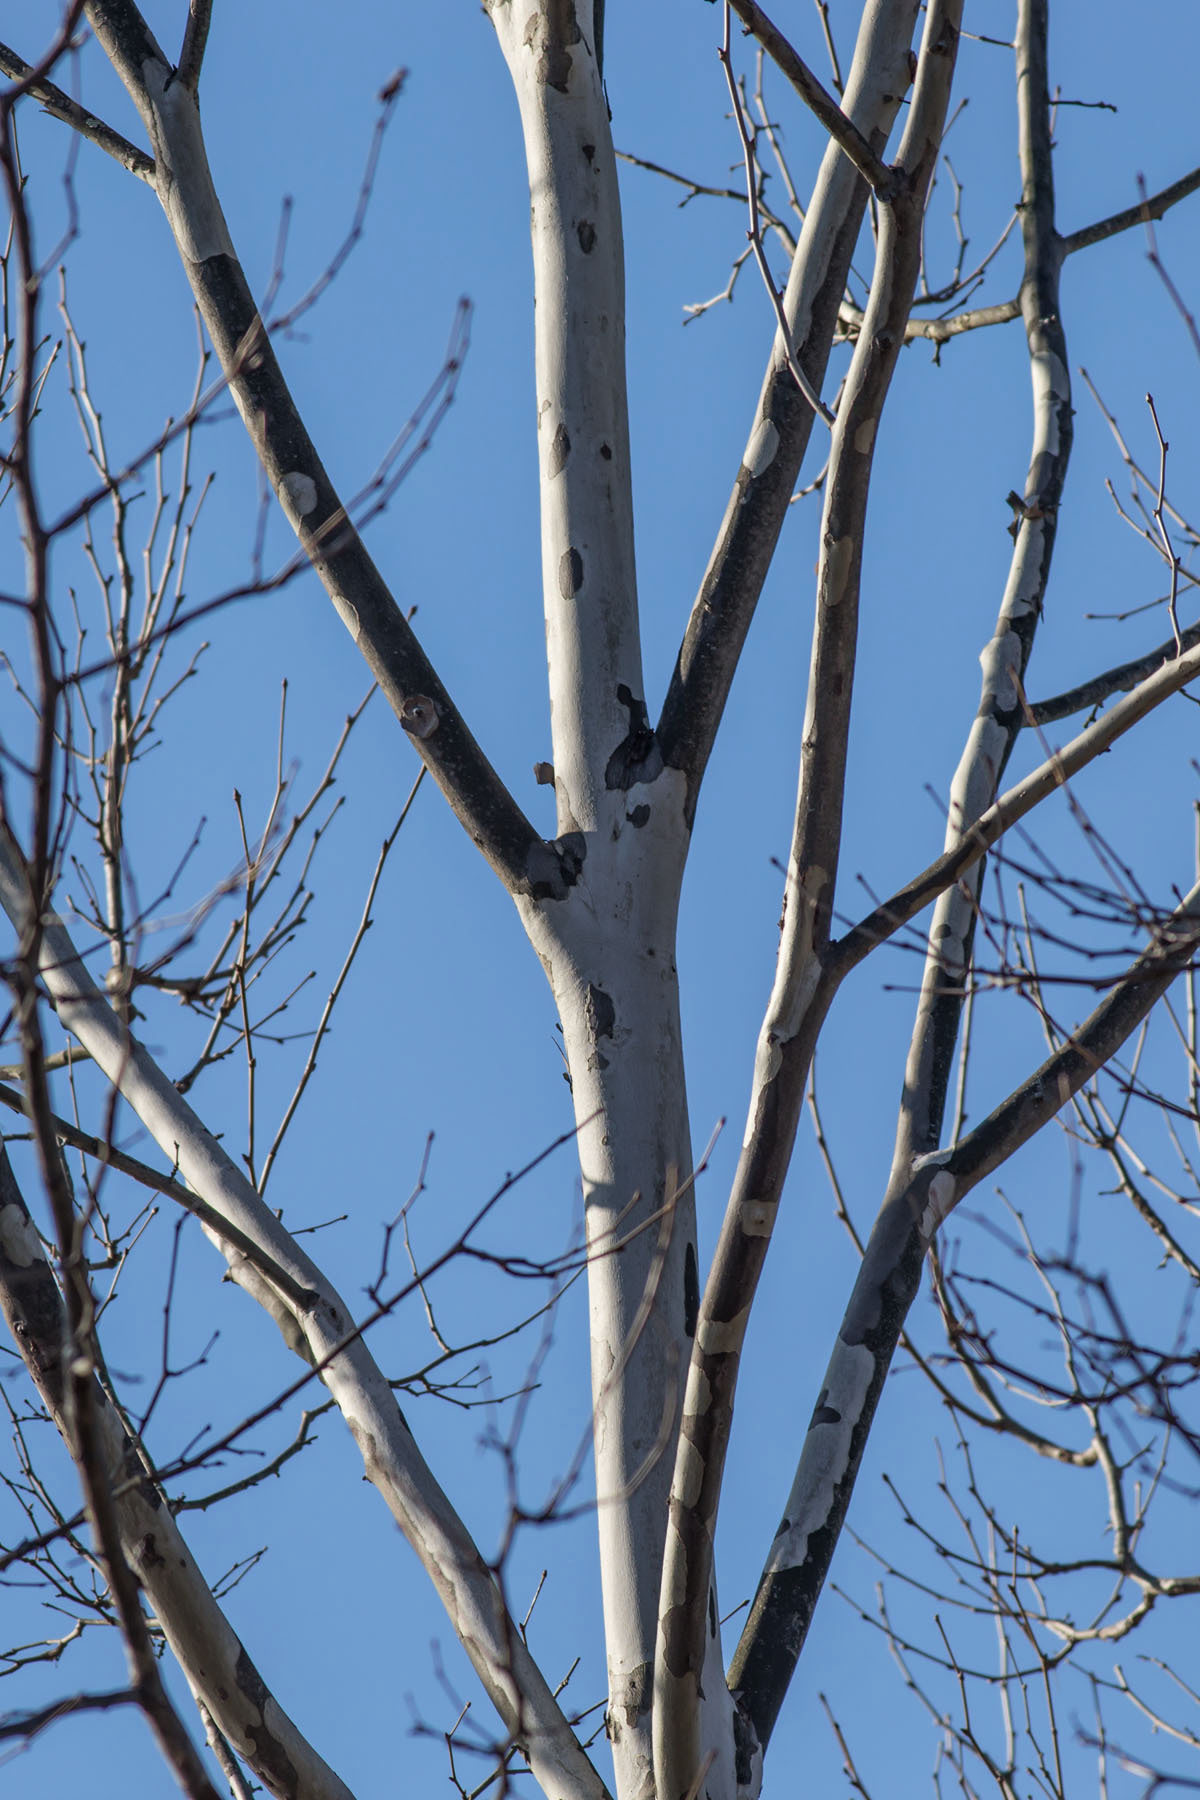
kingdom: Plantae
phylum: Tracheophyta
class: Magnoliopsida
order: Proteales
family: Platanaceae
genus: Platanus
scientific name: Platanus occidentalis
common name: American sycamore
